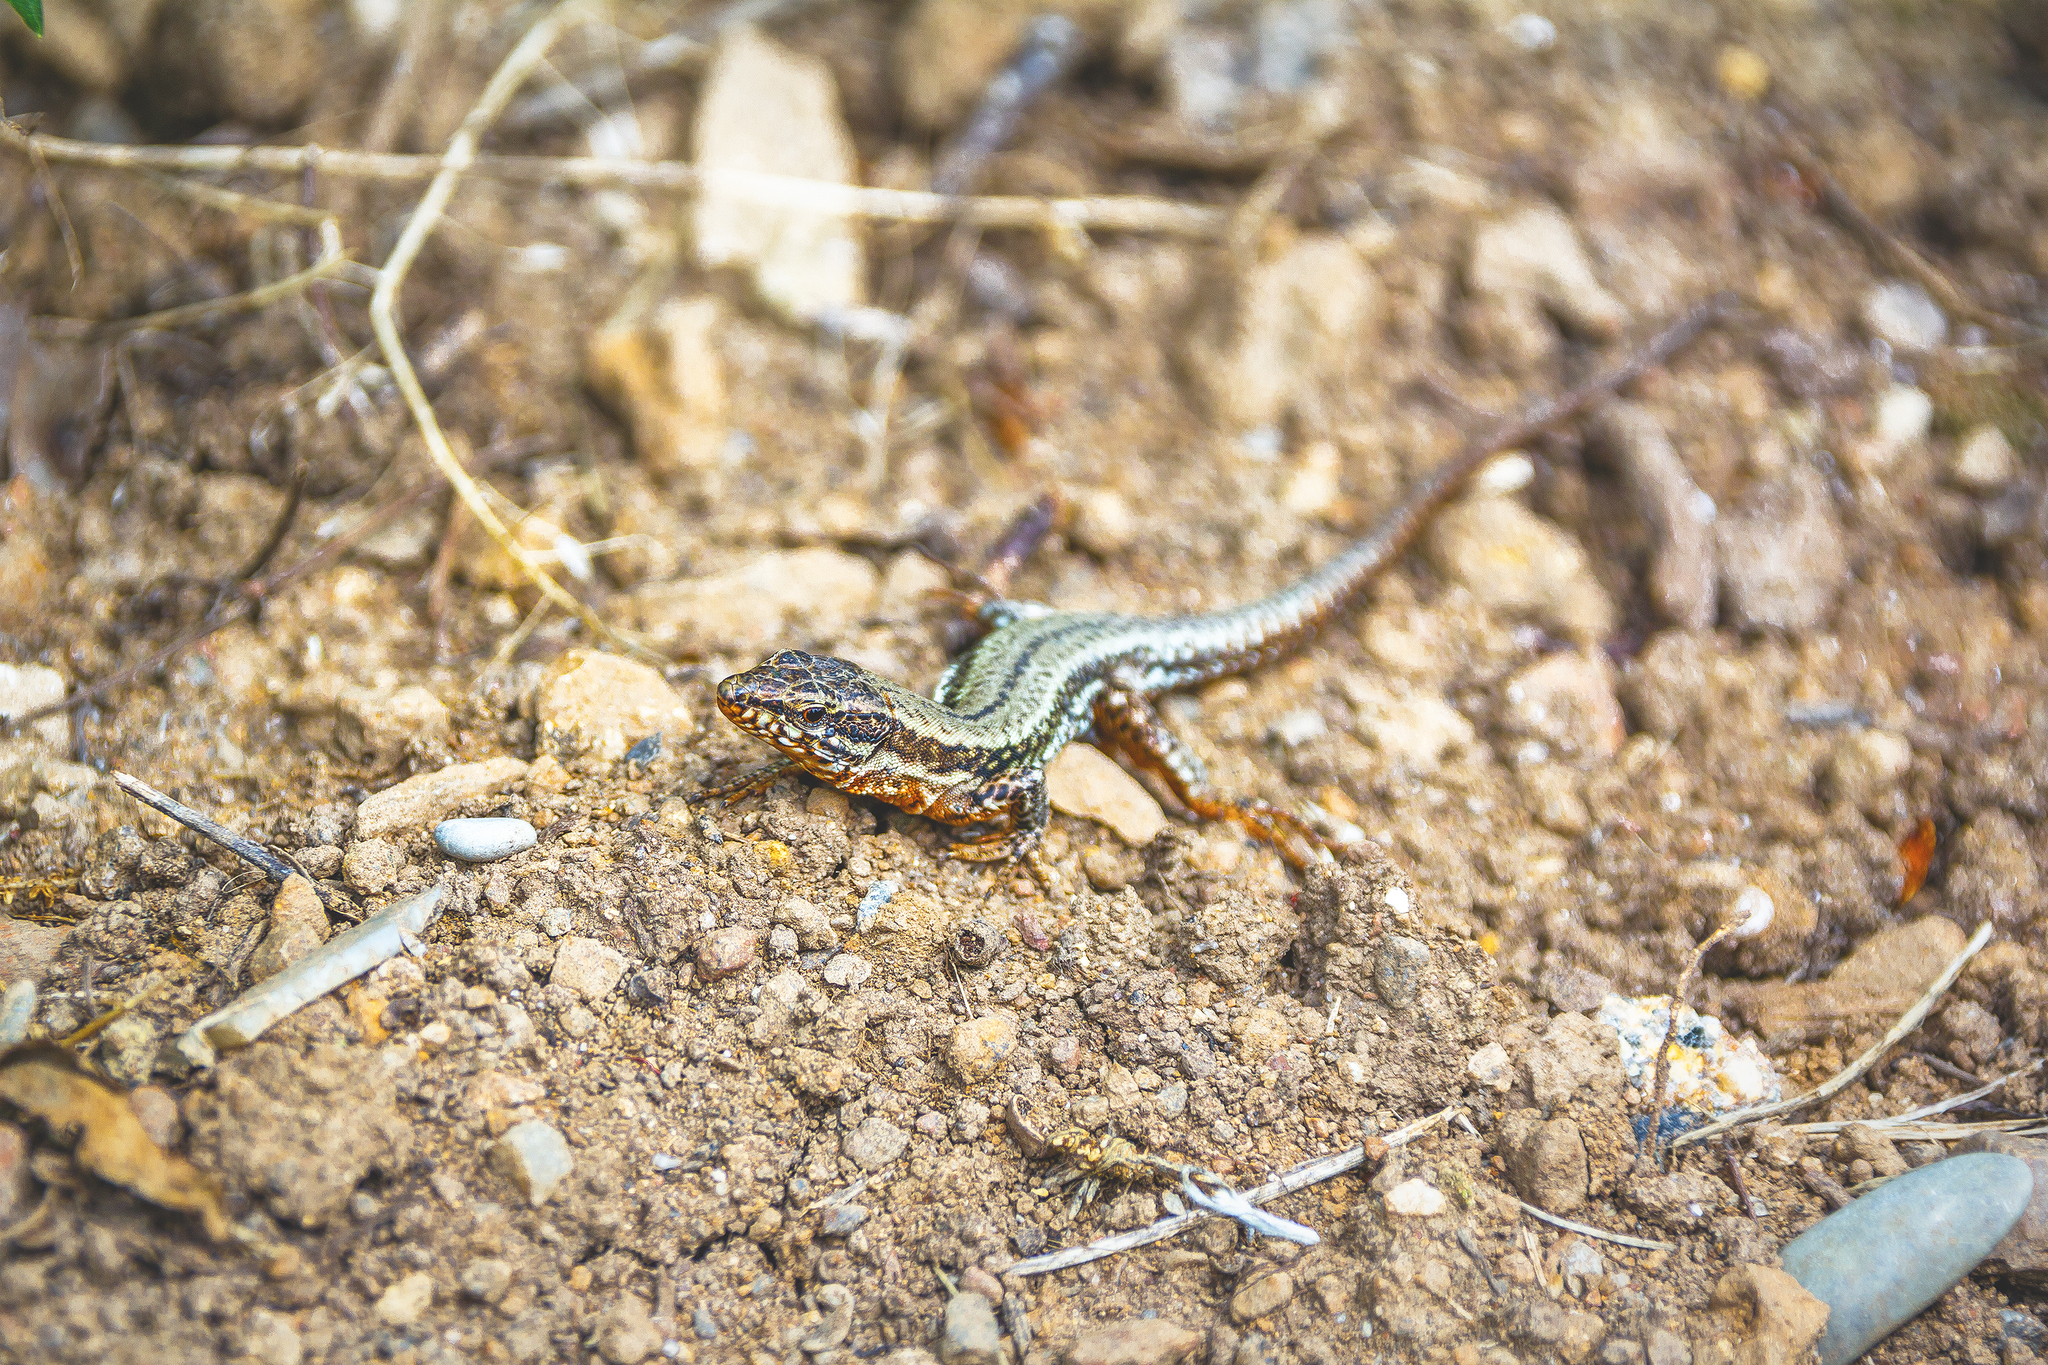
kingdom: Animalia
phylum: Chordata
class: Squamata
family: Lacertidae
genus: Podarcis
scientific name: Podarcis muralis
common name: Common wall lizard
